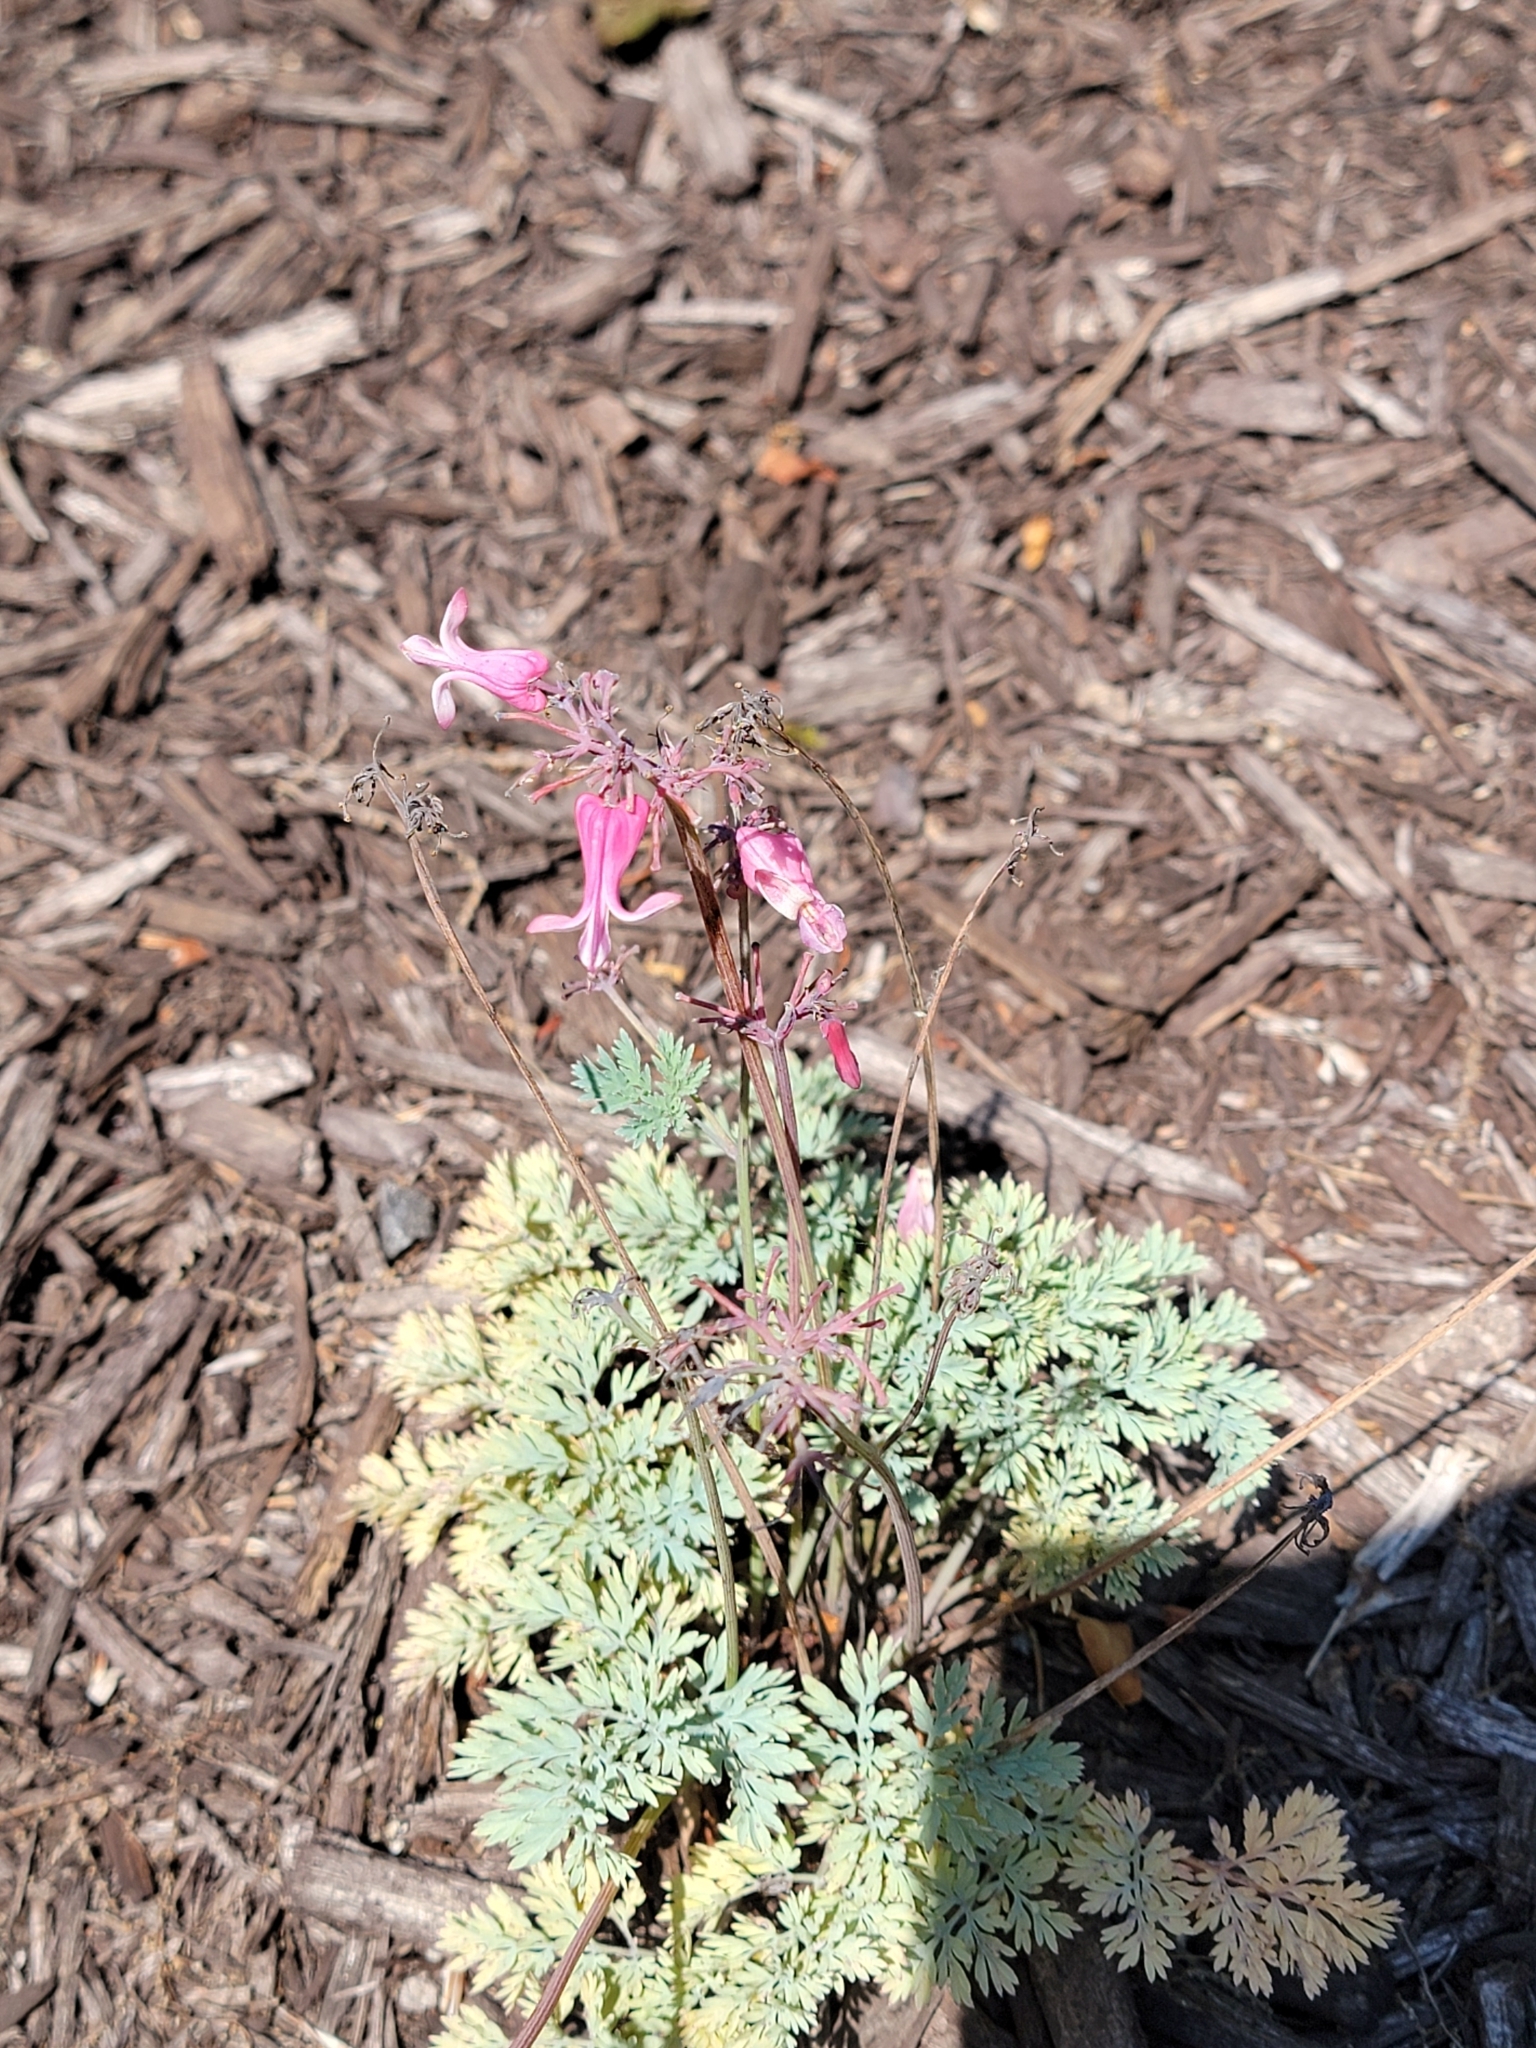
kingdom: Plantae
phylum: Tracheophyta
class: Magnoliopsida
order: Ranunculales
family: Papaveraceae
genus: Dicentra
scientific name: Dicentra eximia
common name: Turkey-corn
